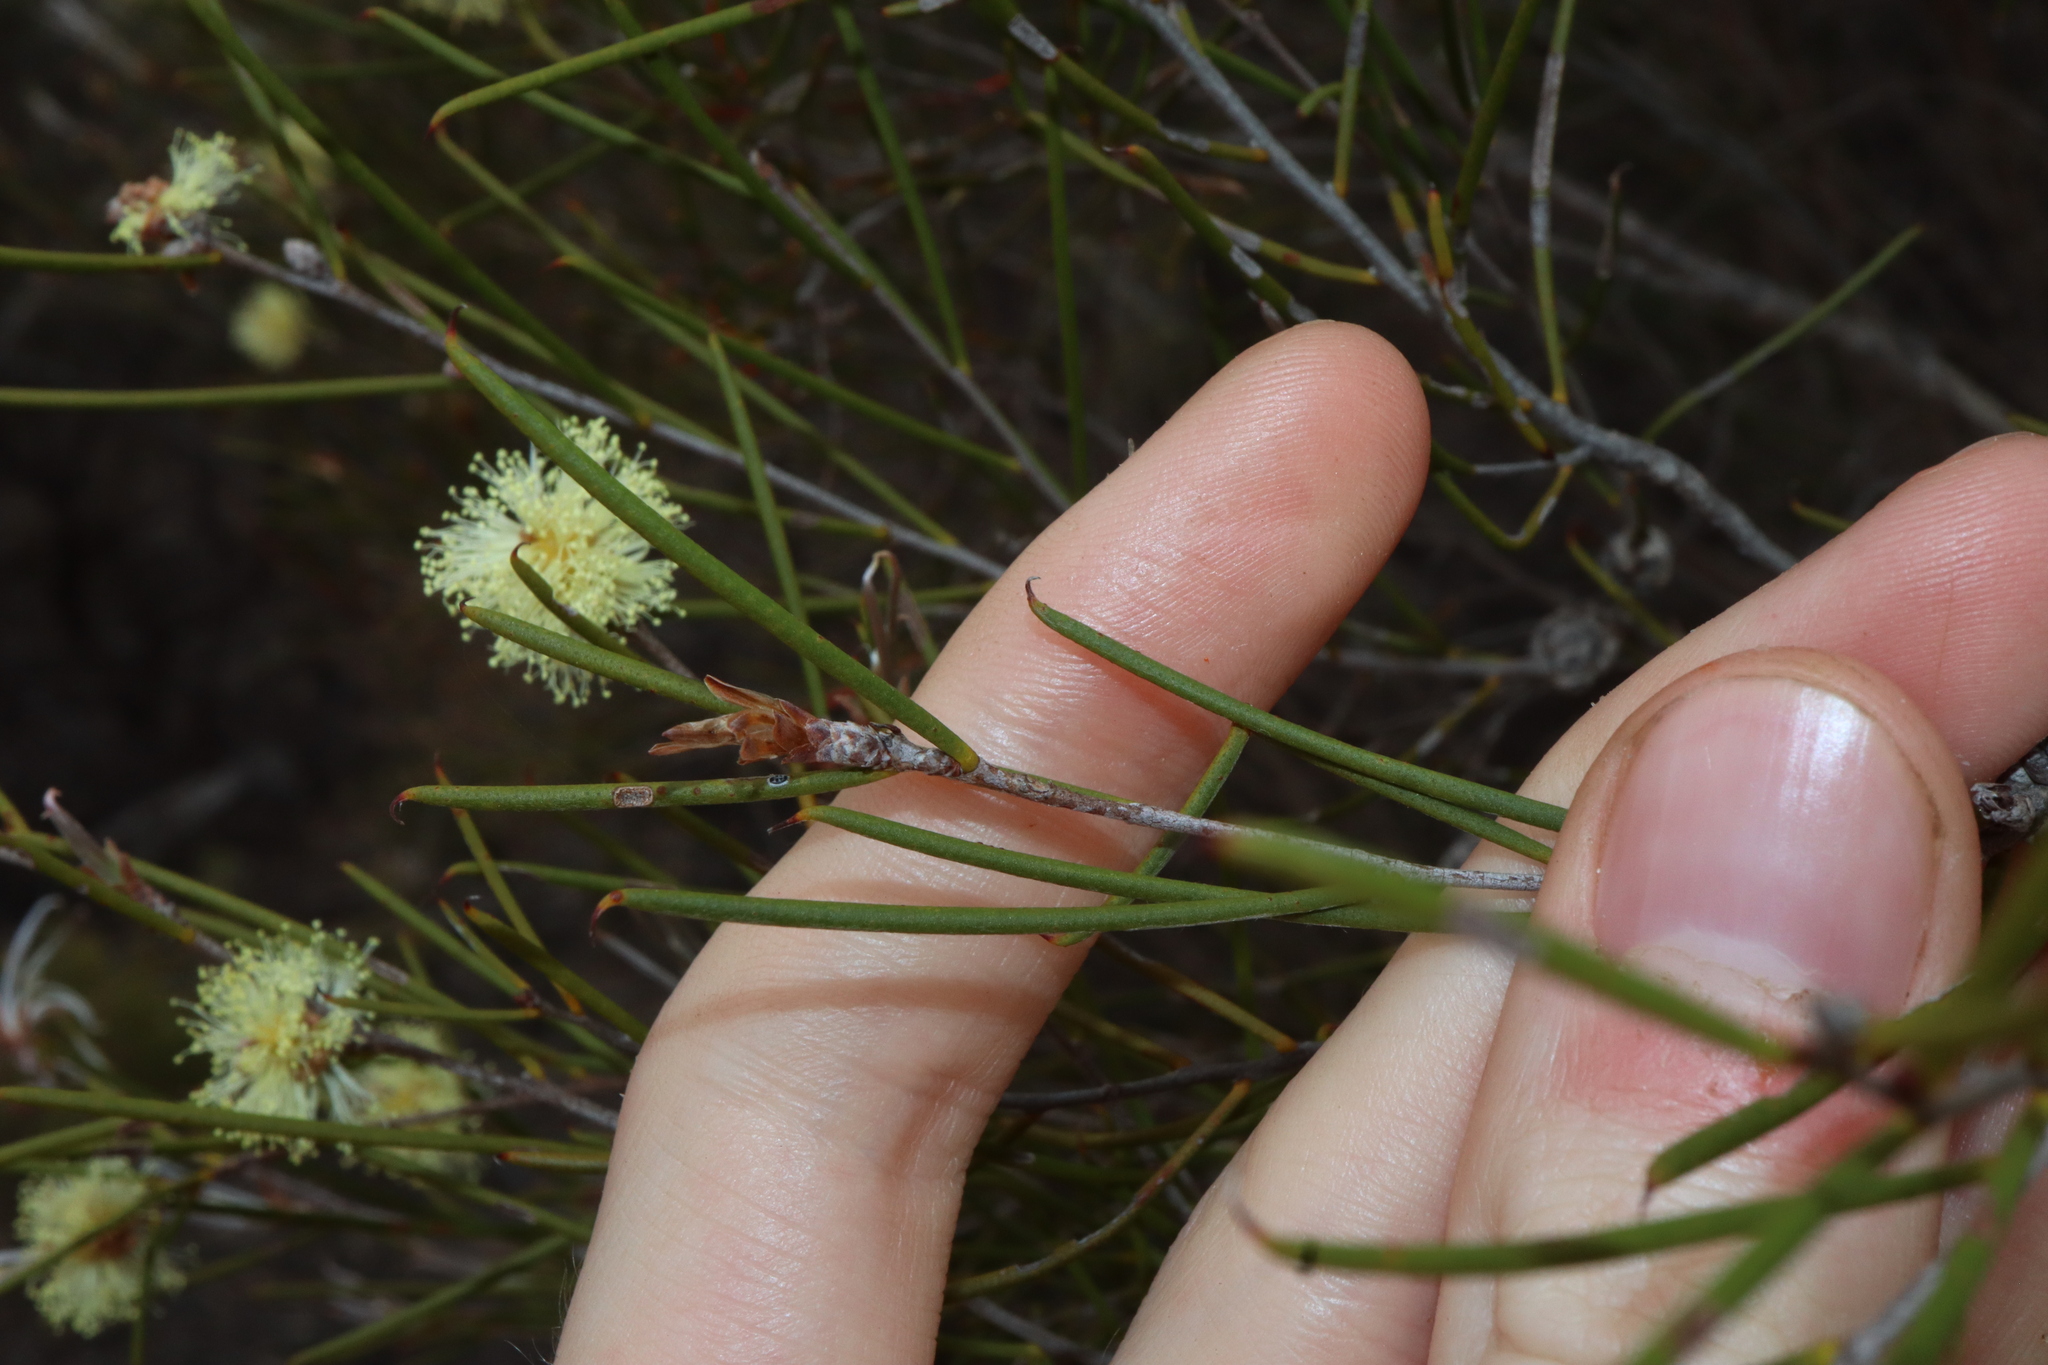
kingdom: Plantae
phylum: Tracheophyta
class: Magnoliopsida
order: Myrtales
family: Myrtaceae
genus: Melaleuca
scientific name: Melaleuca hamata
